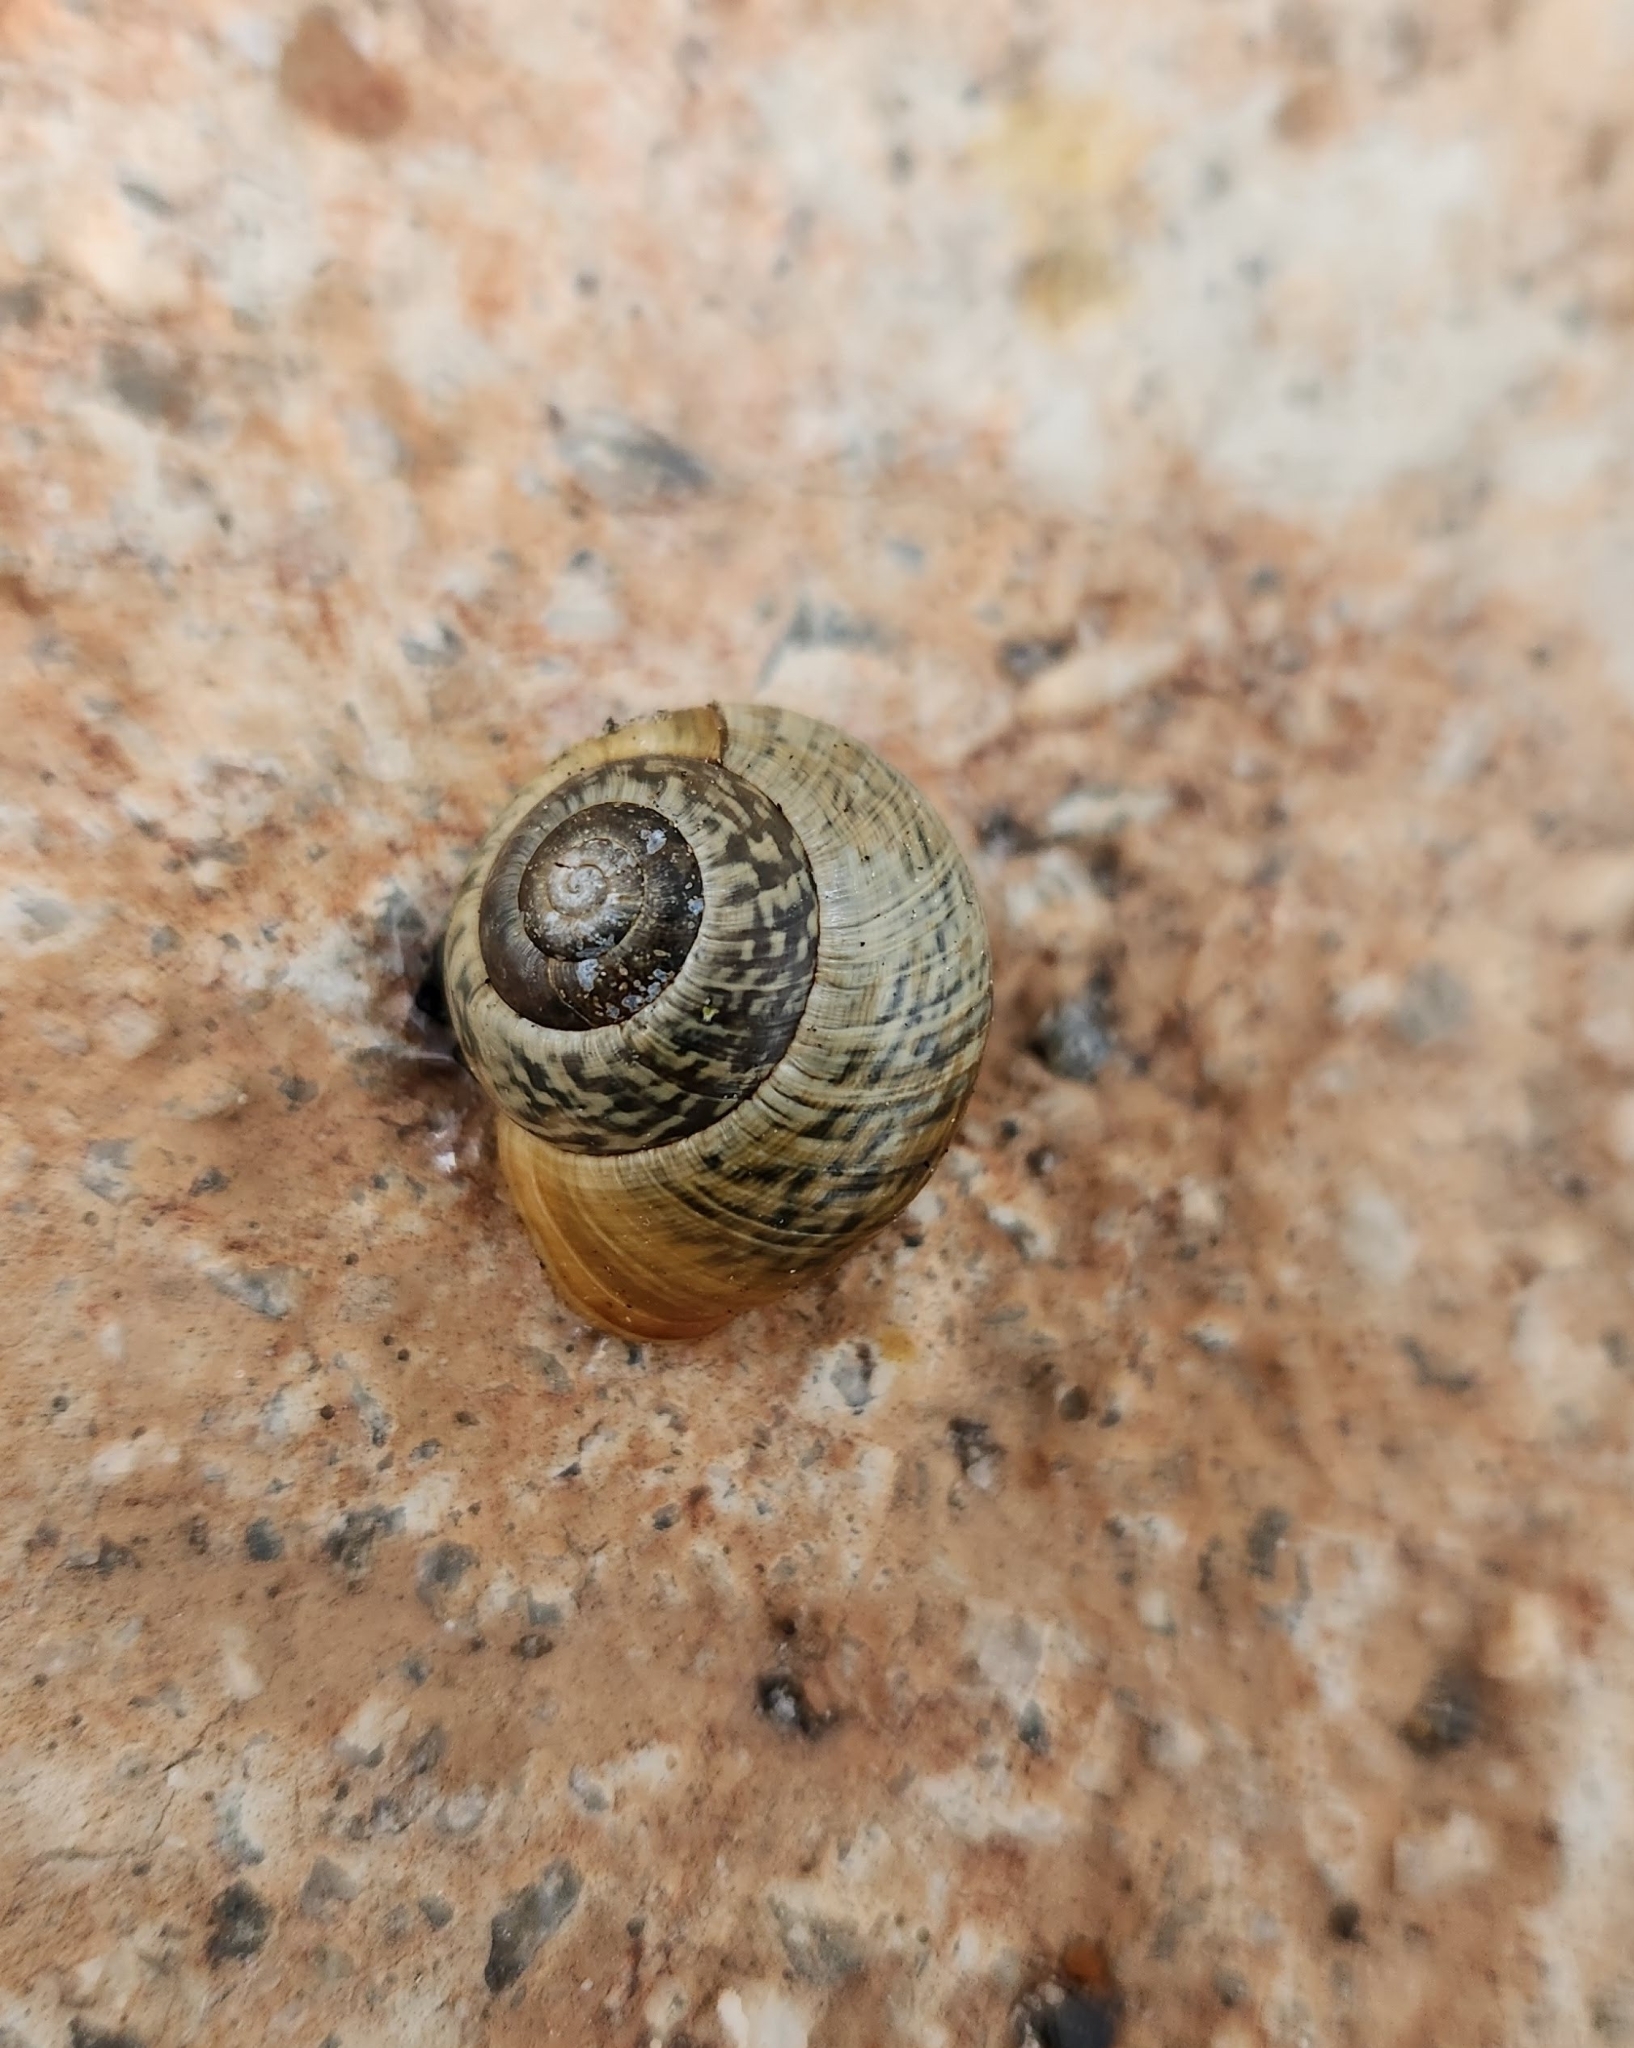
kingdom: Animalia
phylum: Mollusca
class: Gastropoda
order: Stylommatophora
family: Helicidae
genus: Arianta
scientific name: Arianta arbustorum
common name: Copse snail
